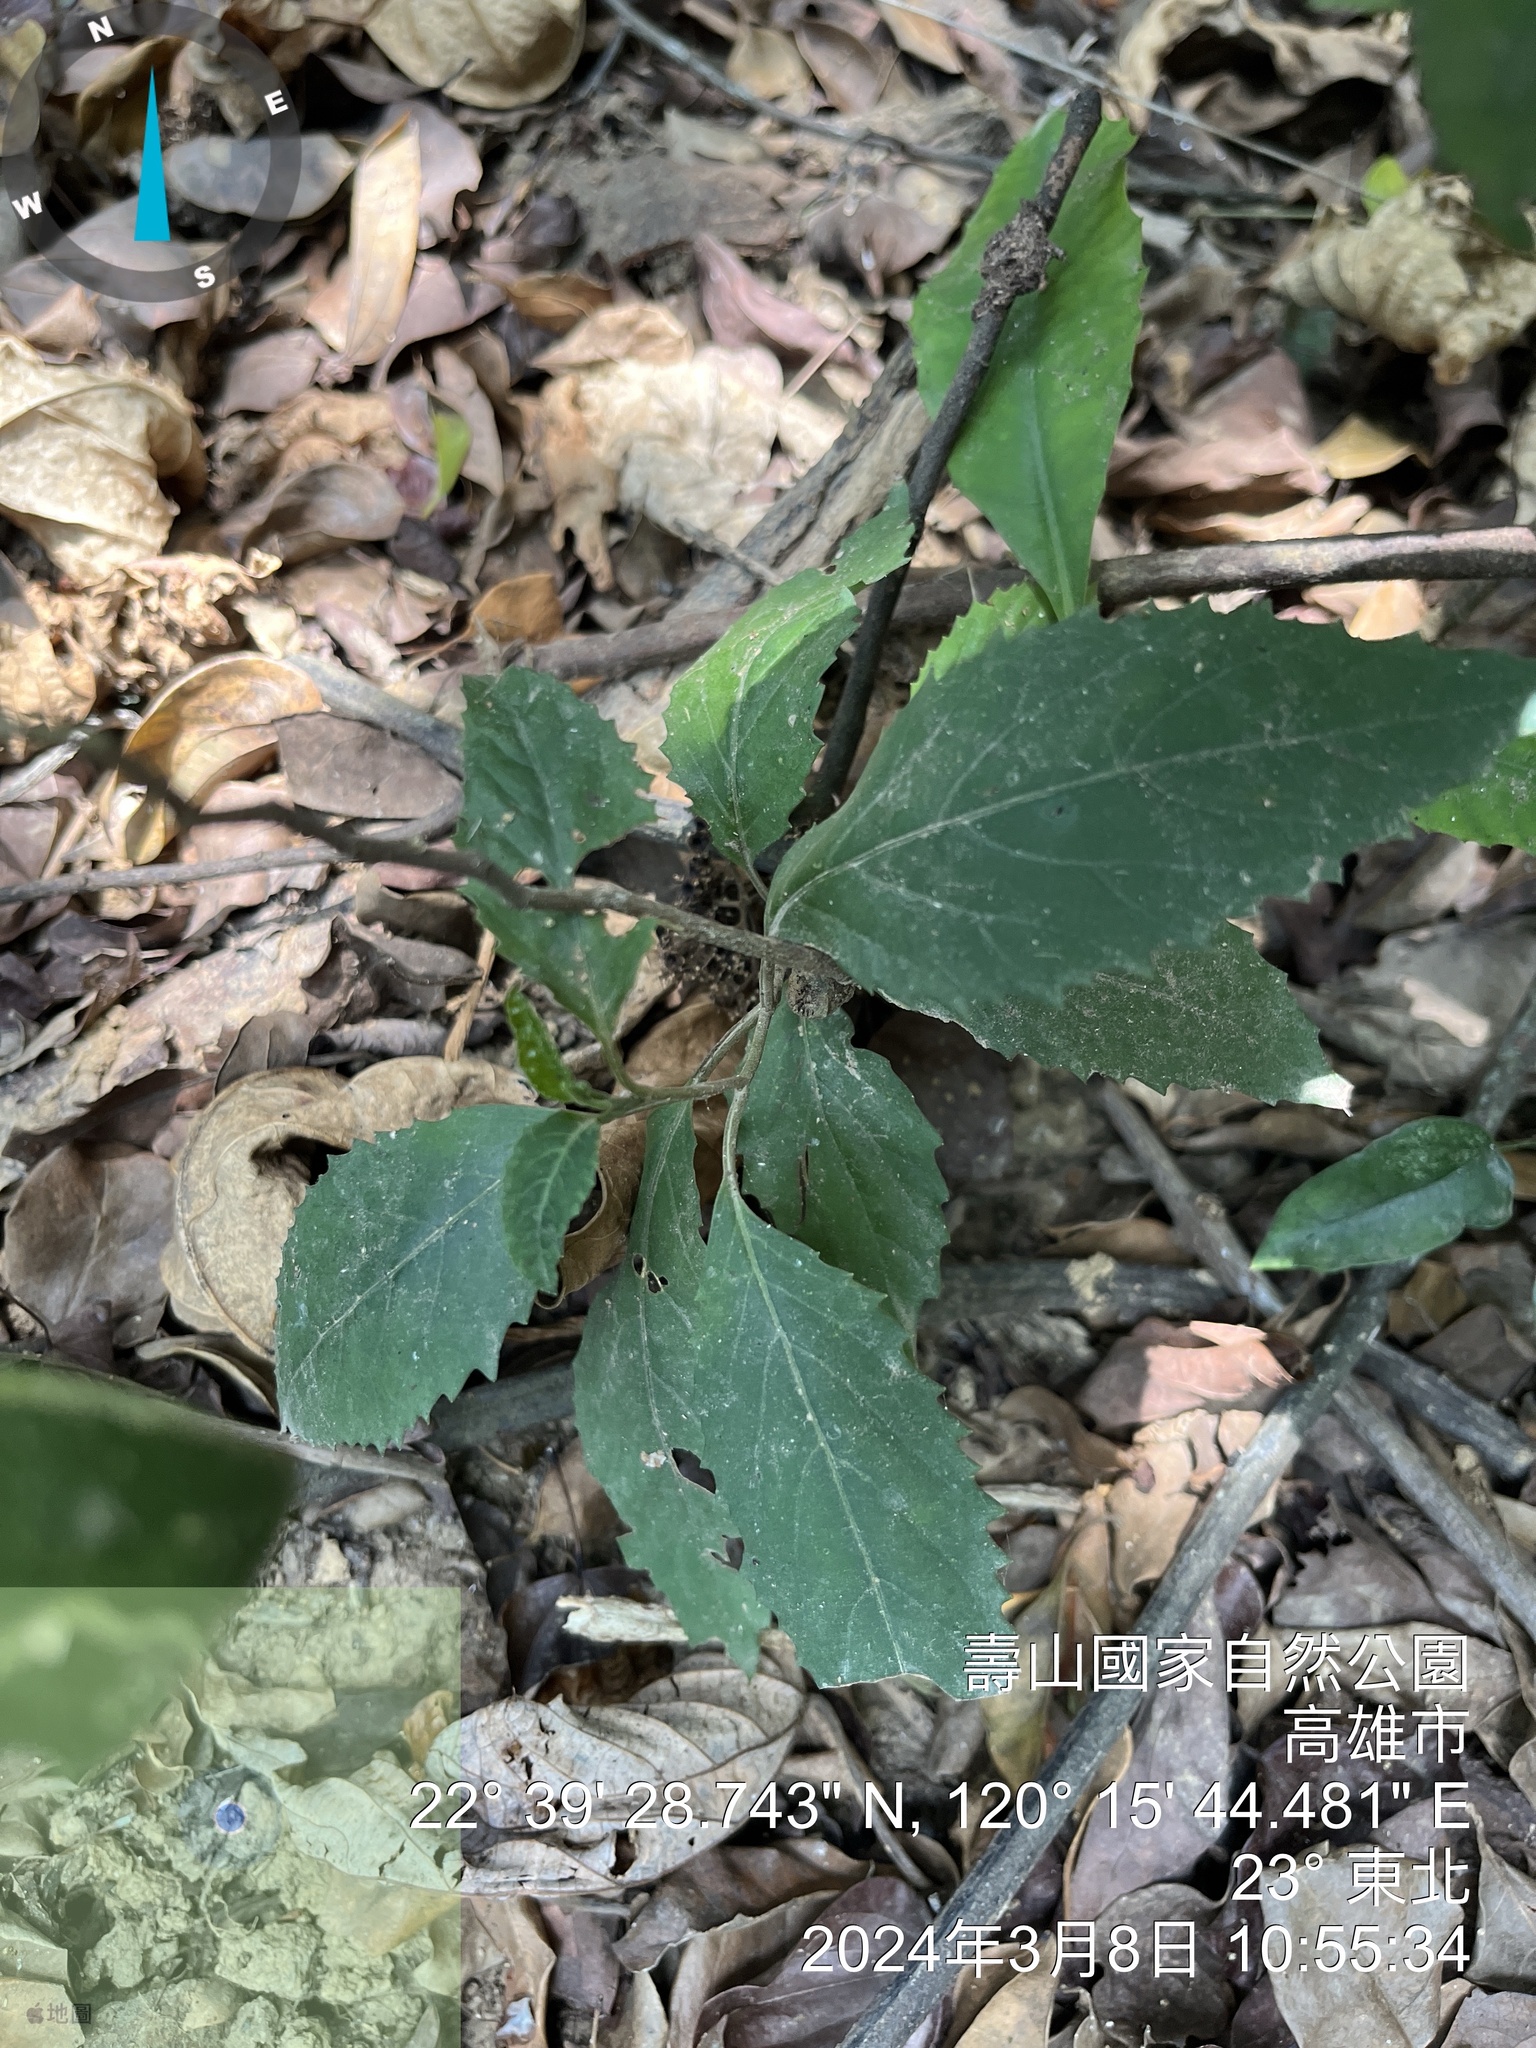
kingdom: Plantae
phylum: Tracheophyta
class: Magnoliopsida
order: Ericales
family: Primulaceae
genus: Maesa
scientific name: Maesa perlaria
